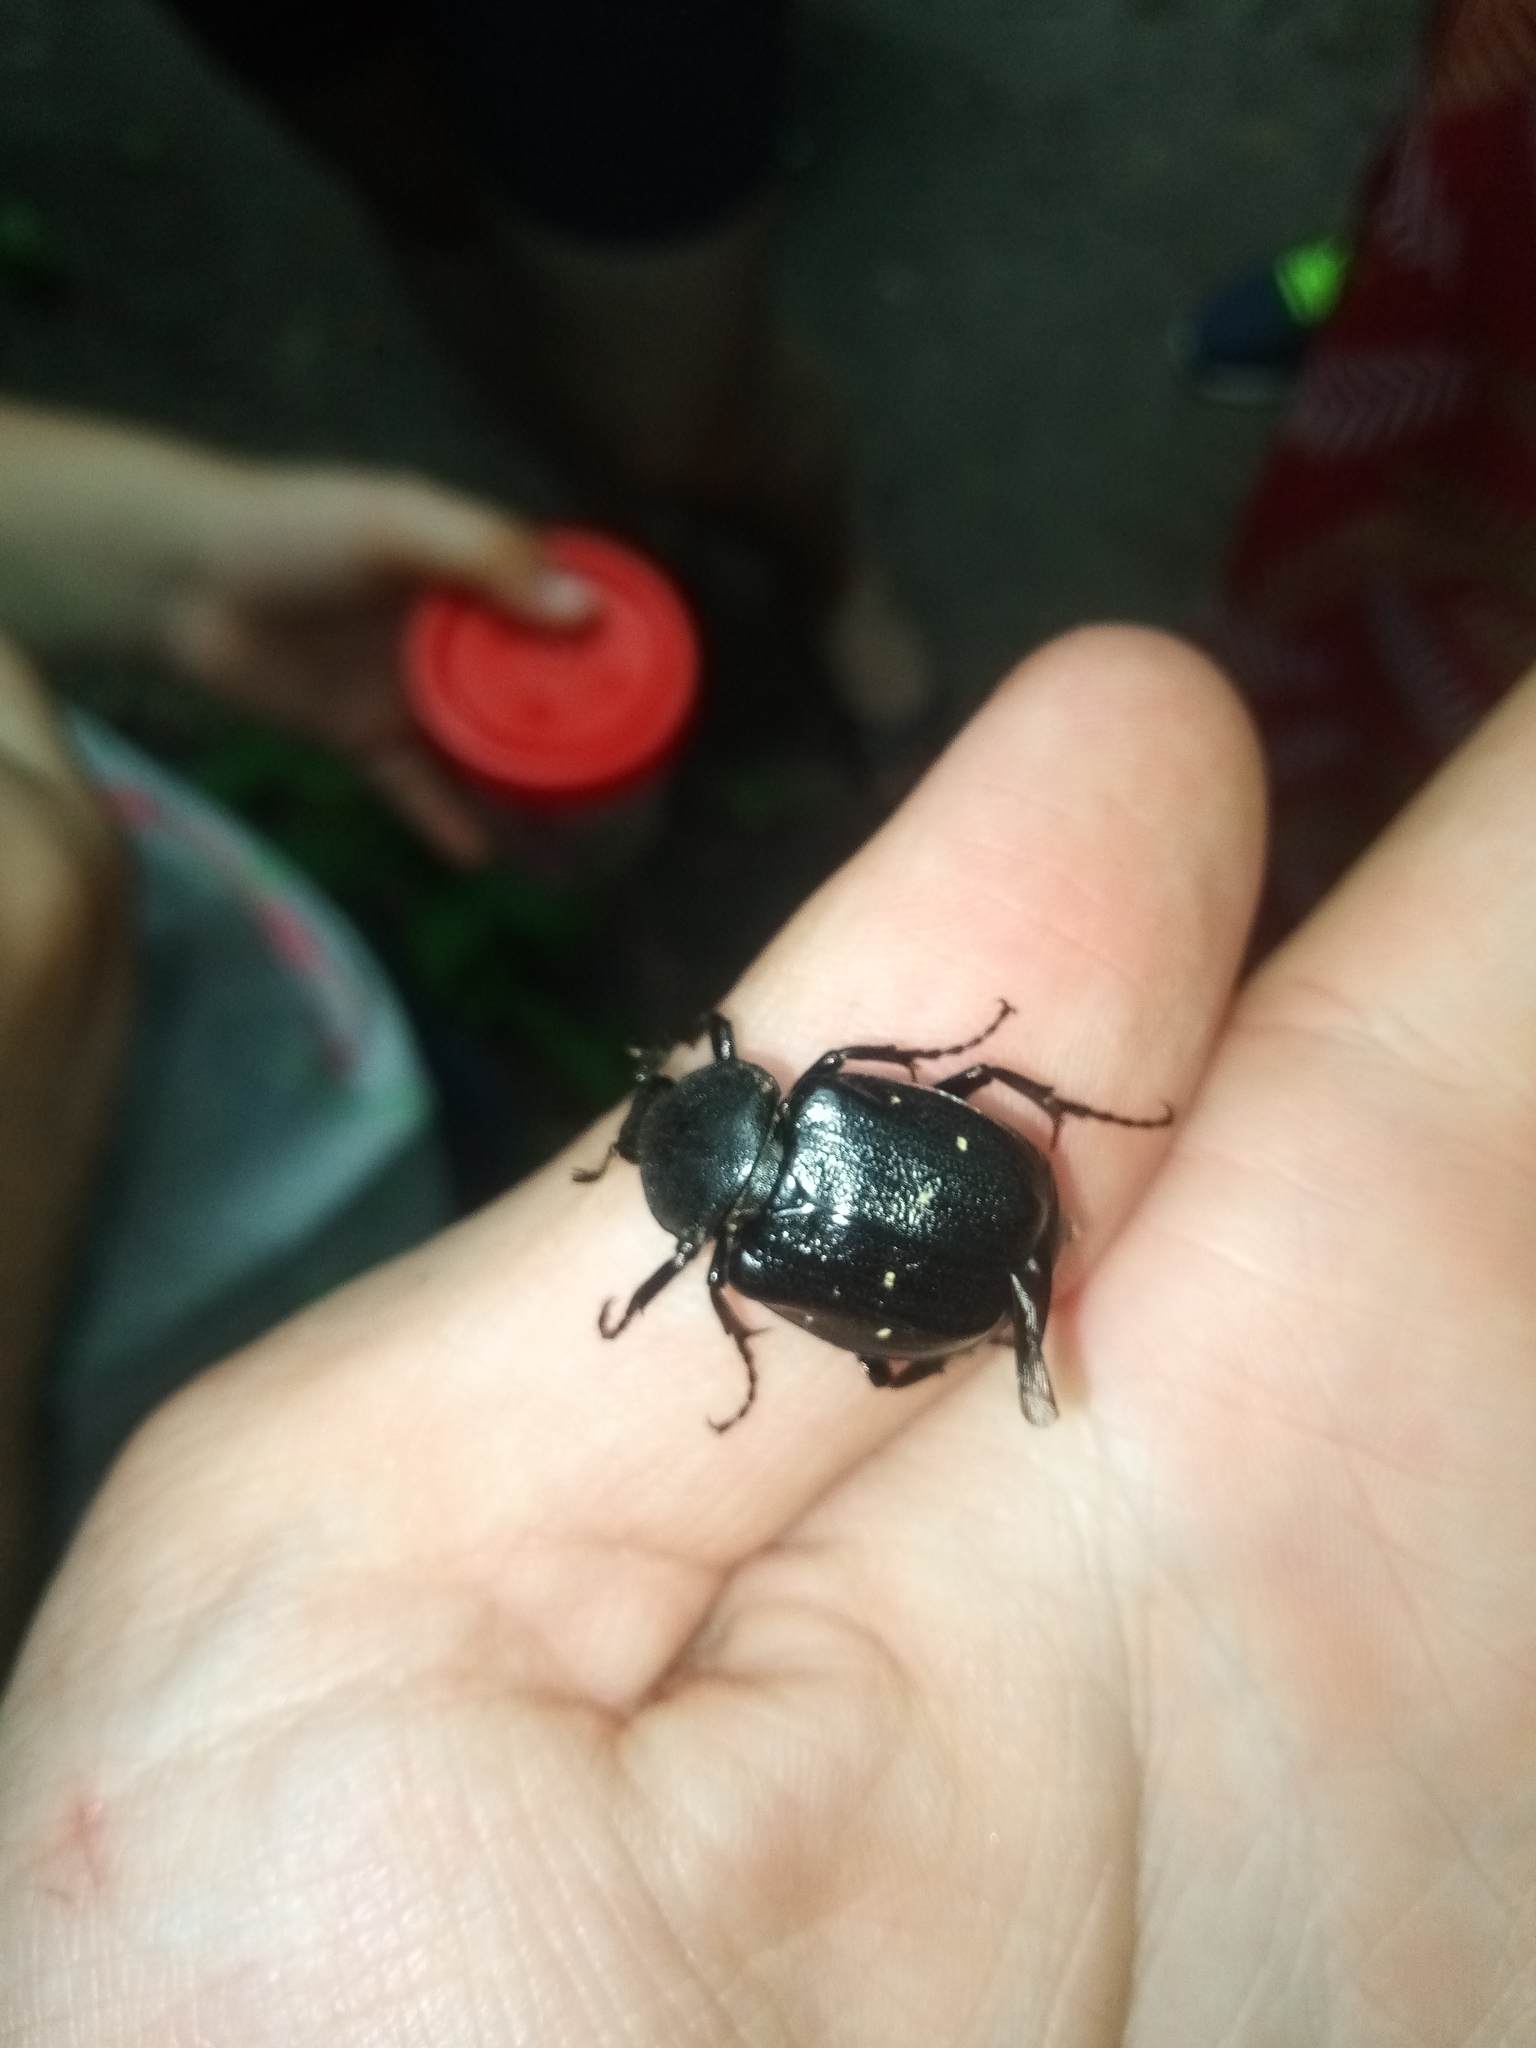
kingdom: Animalia
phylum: Arthropoda
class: Insecta
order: Coleoptera
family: Scarabaeidae
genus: Gnorimus
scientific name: Gnorimus variabilis
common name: Variable chafer
